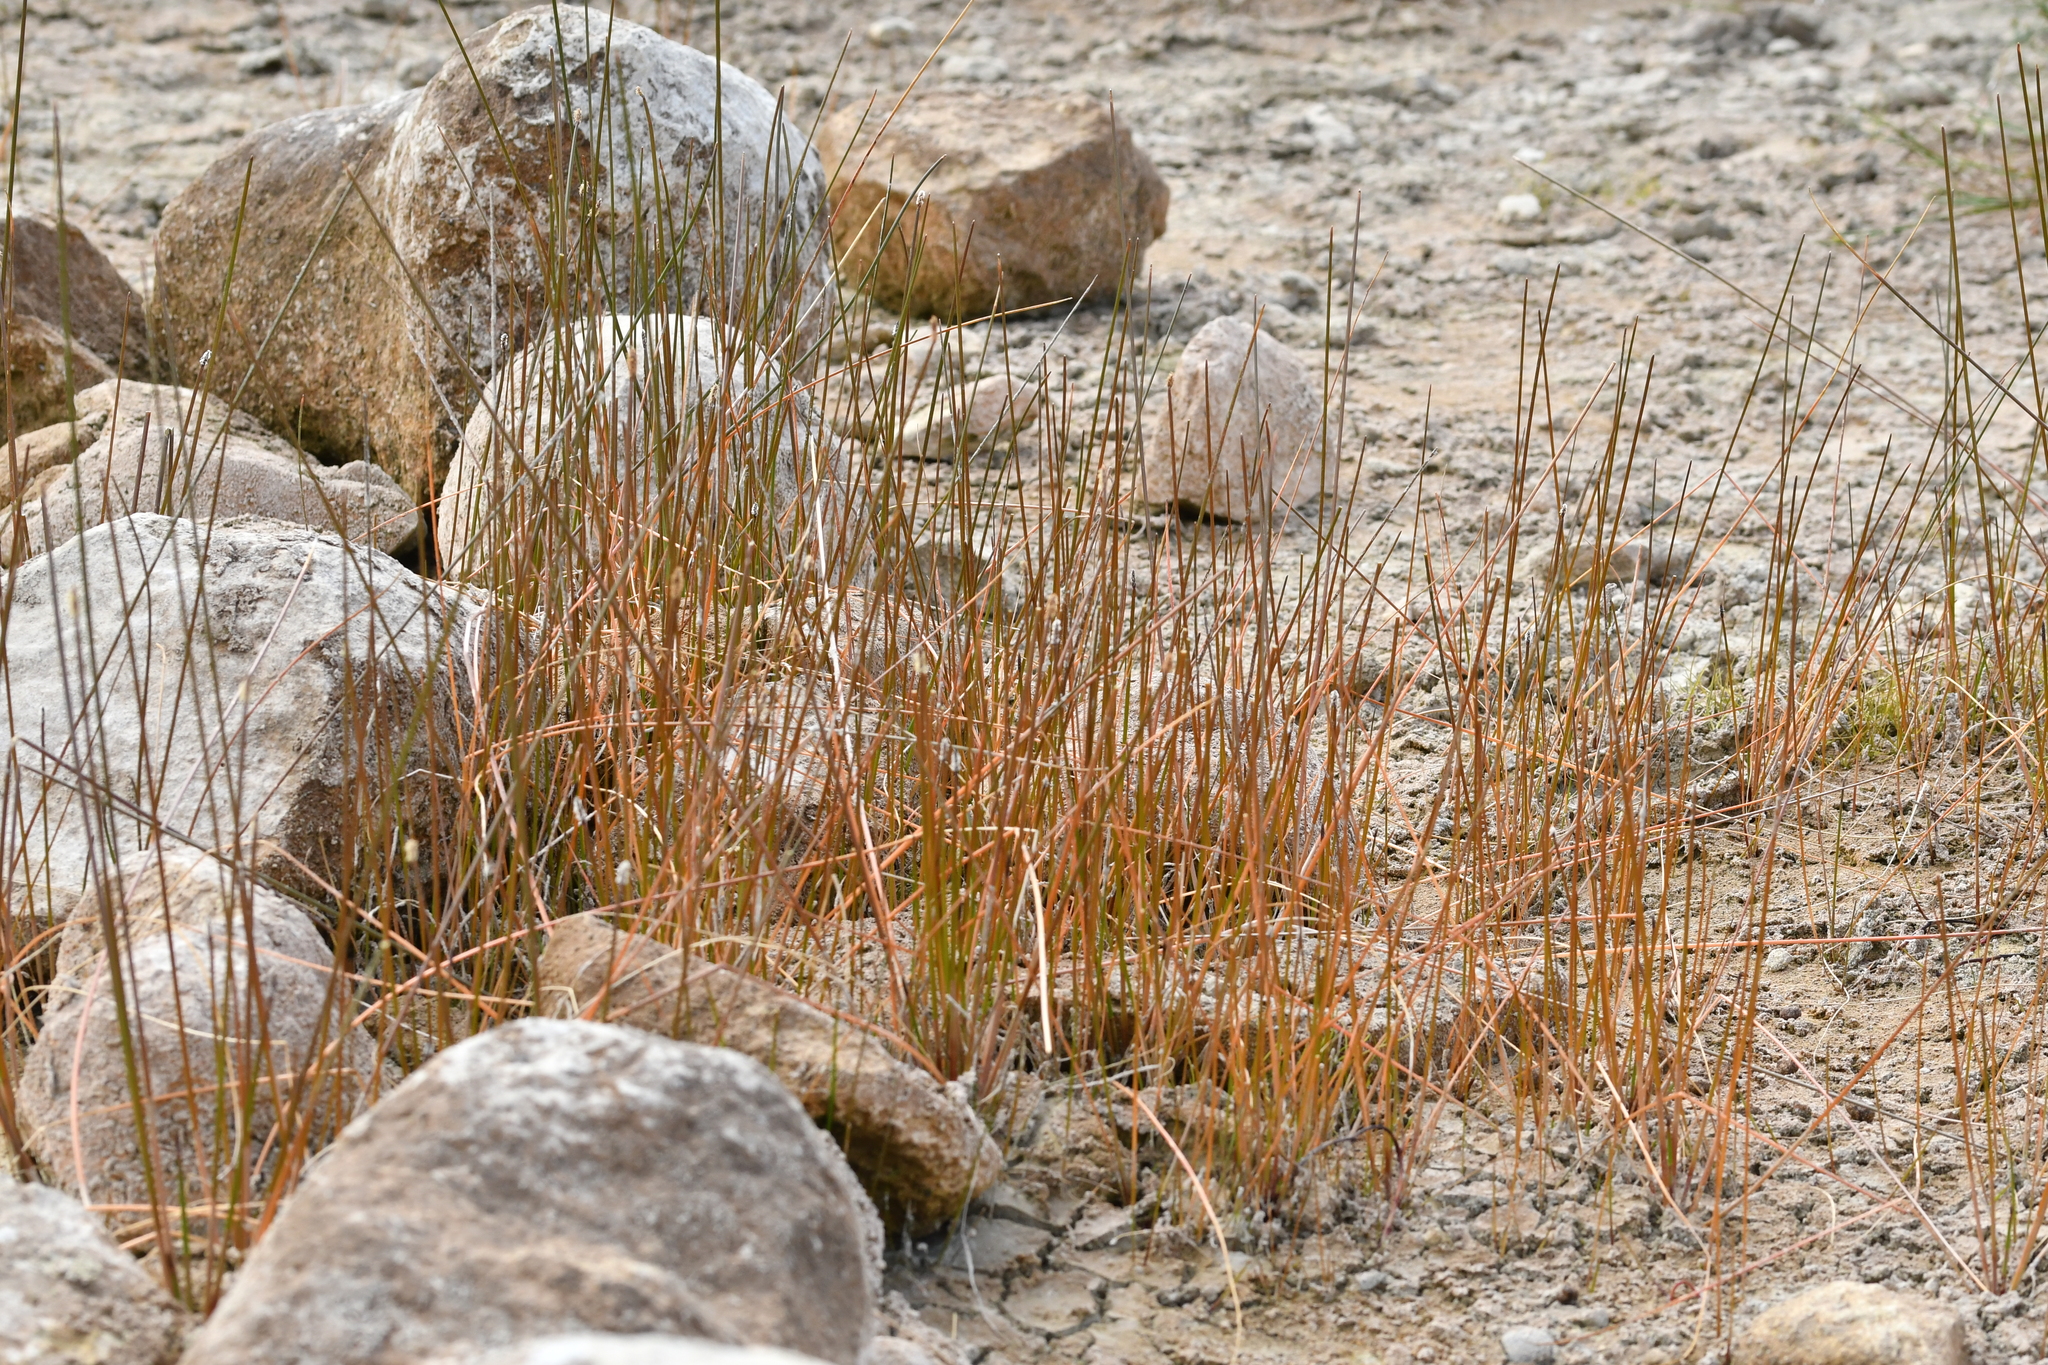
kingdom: Plantae
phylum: Tracheophyta
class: Liliopsida
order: Poales
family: Cyperaceae
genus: Eleocharis
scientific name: Eleocharis acuta
